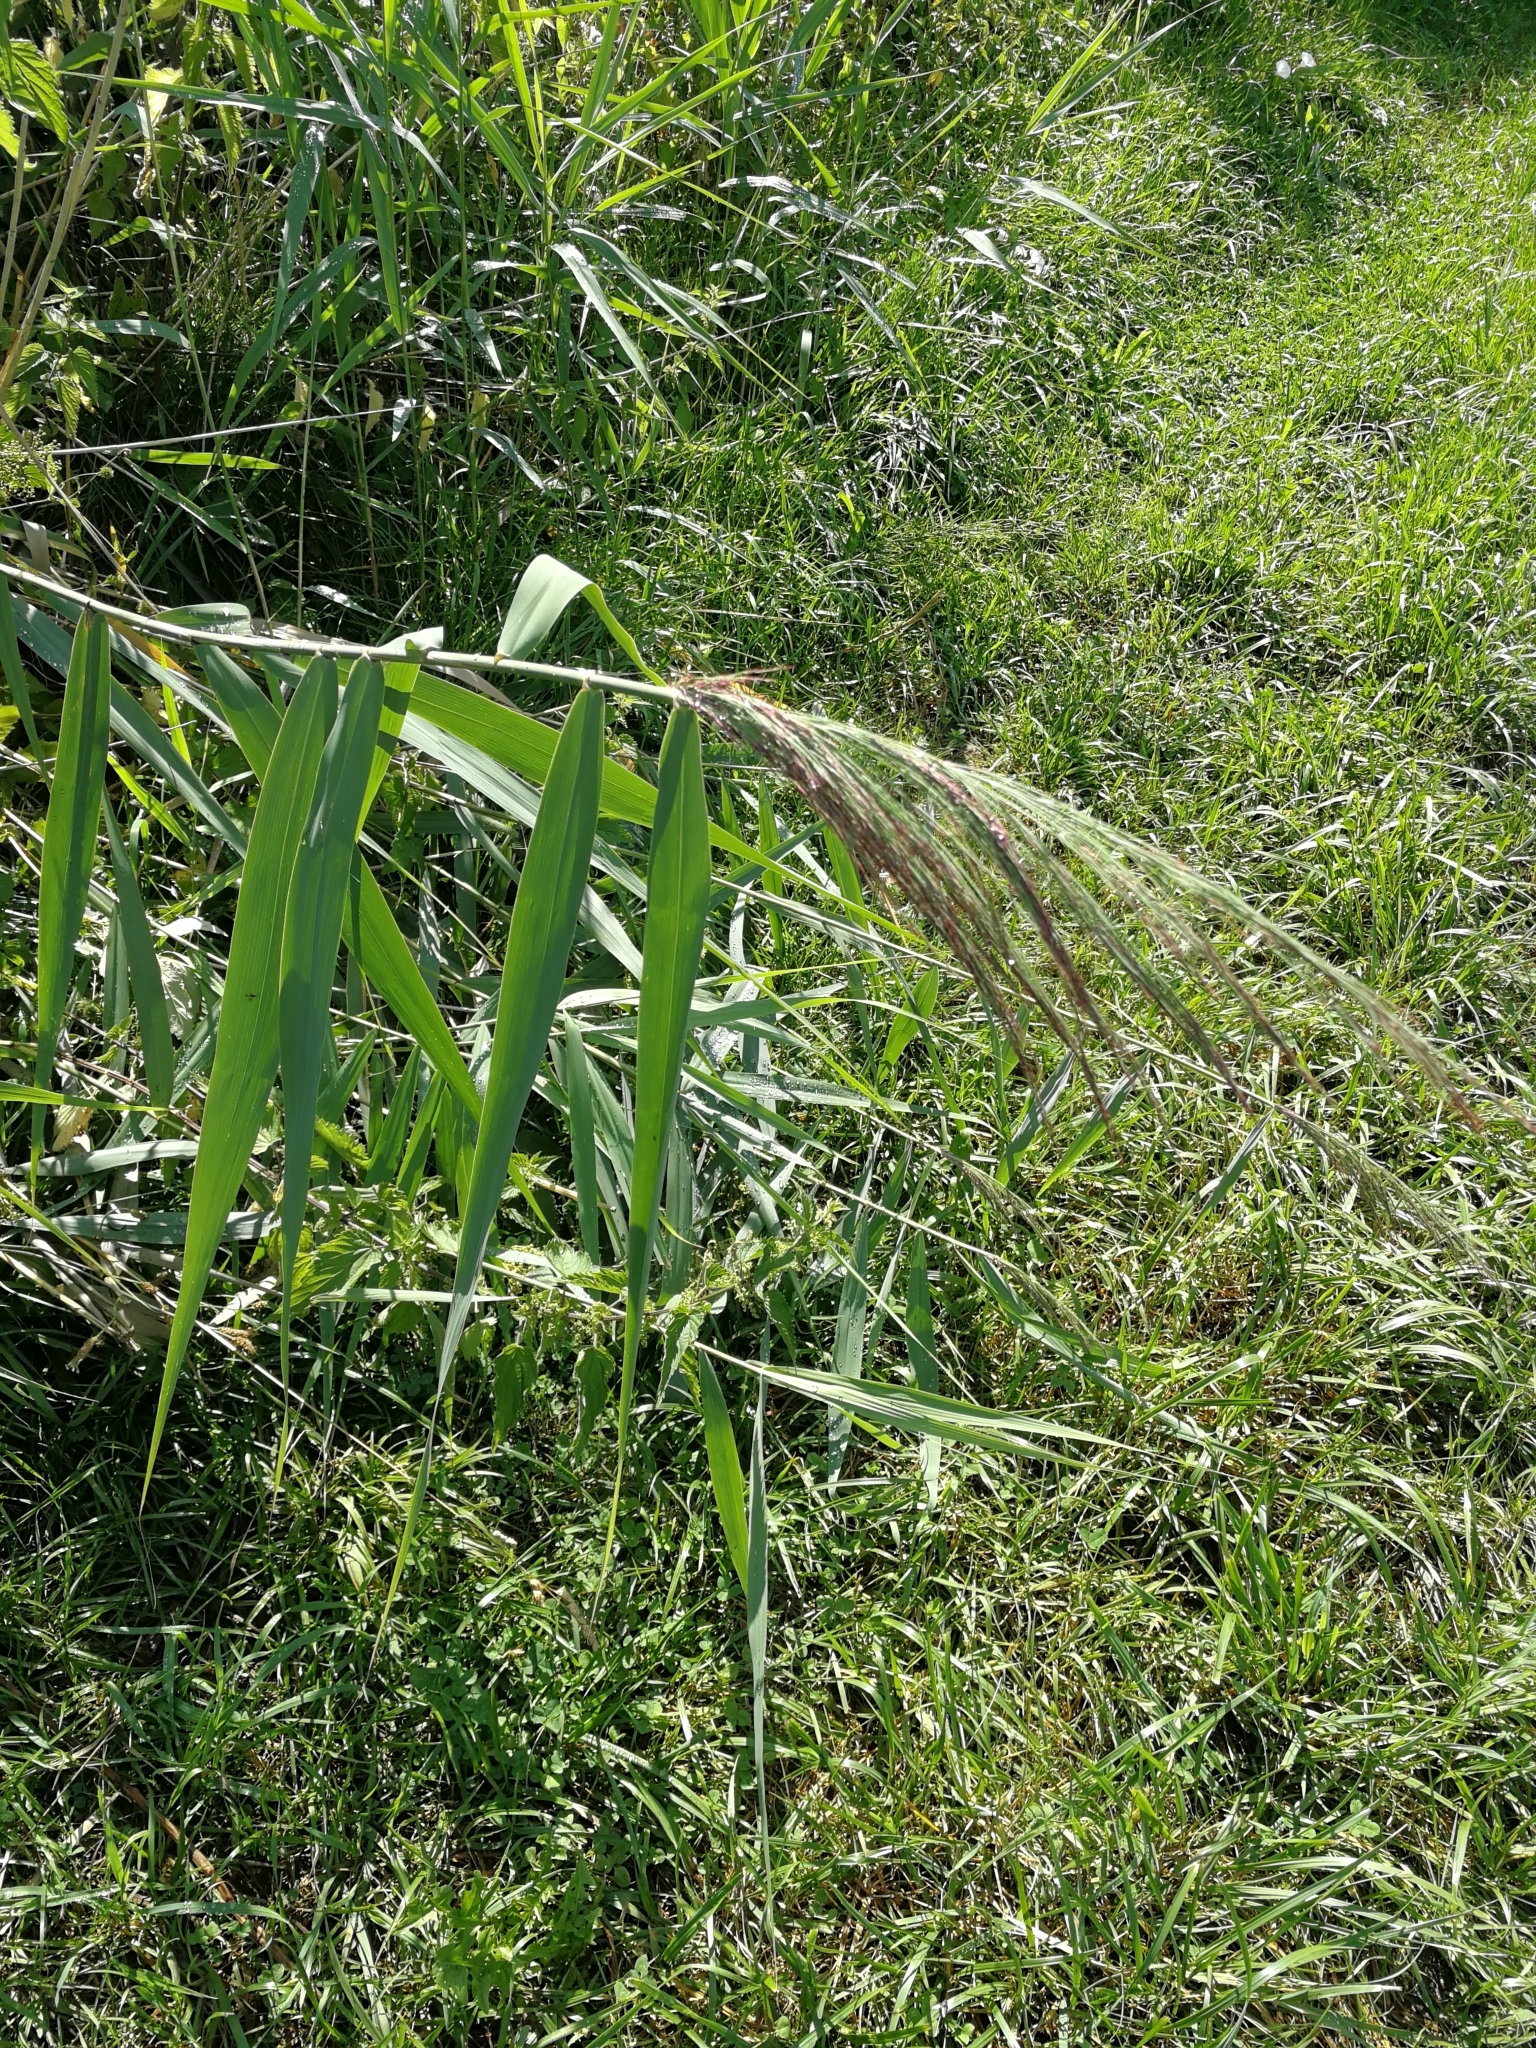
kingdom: Plantae
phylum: Tracheophyta
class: Liliopsida
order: Poales
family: Poaceae
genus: Phragmites
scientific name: Phragmites australis
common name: Common reed
